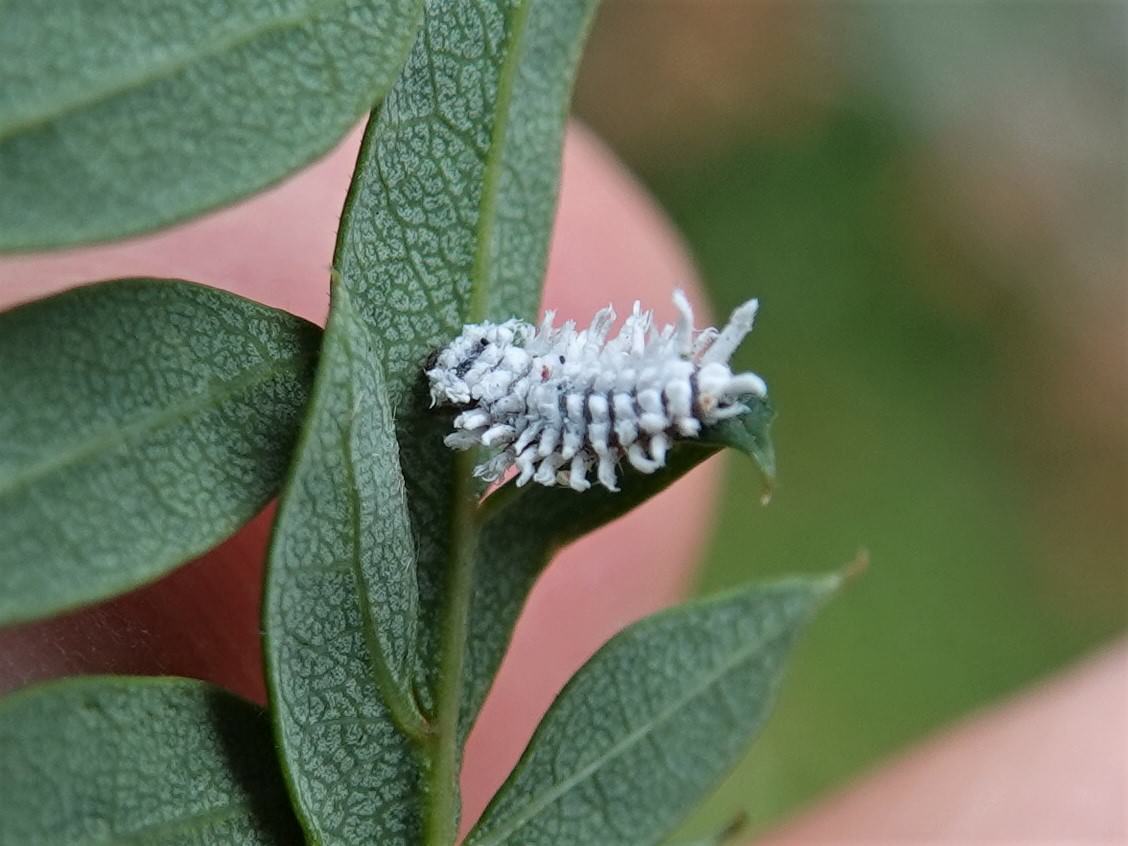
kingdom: Animalia
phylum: Arthropoda
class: Insecta
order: Coleoptera
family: Coccinellidae
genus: Cryptolaemus
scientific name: Cryptolaemus montrouzieri
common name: Mealybug destroyer
